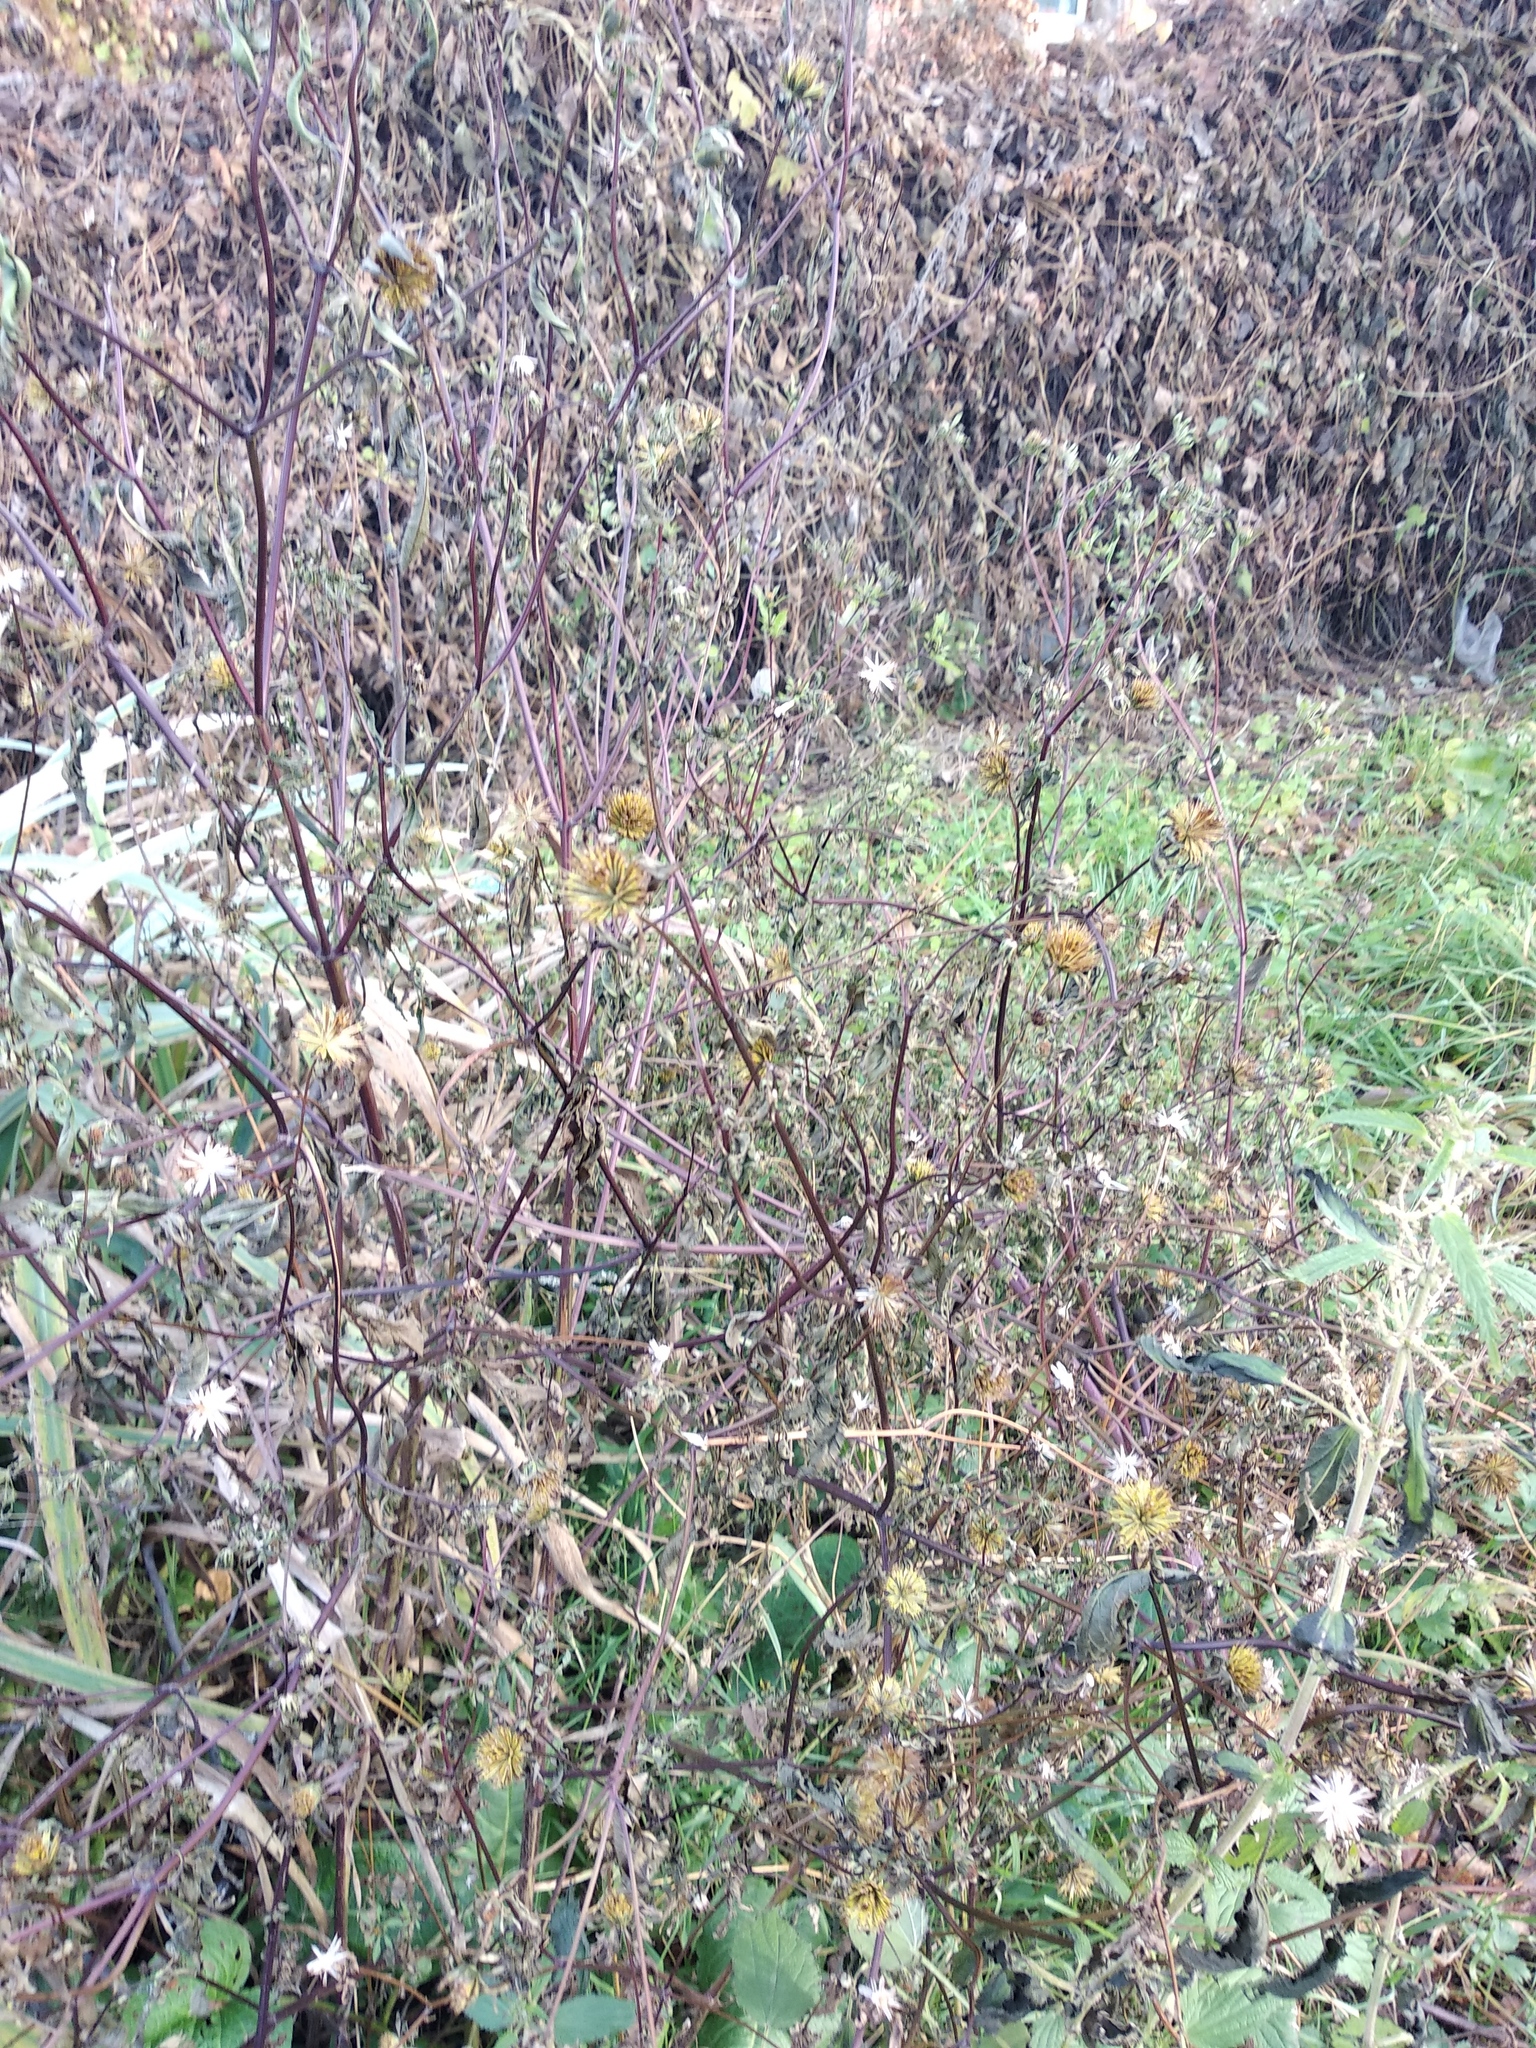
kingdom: Plantae
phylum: Tracheophyta
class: Magnoliopsida
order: Asterales
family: Asteraceae
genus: Bidens
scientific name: Bidens frondosa
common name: Beggarticks
